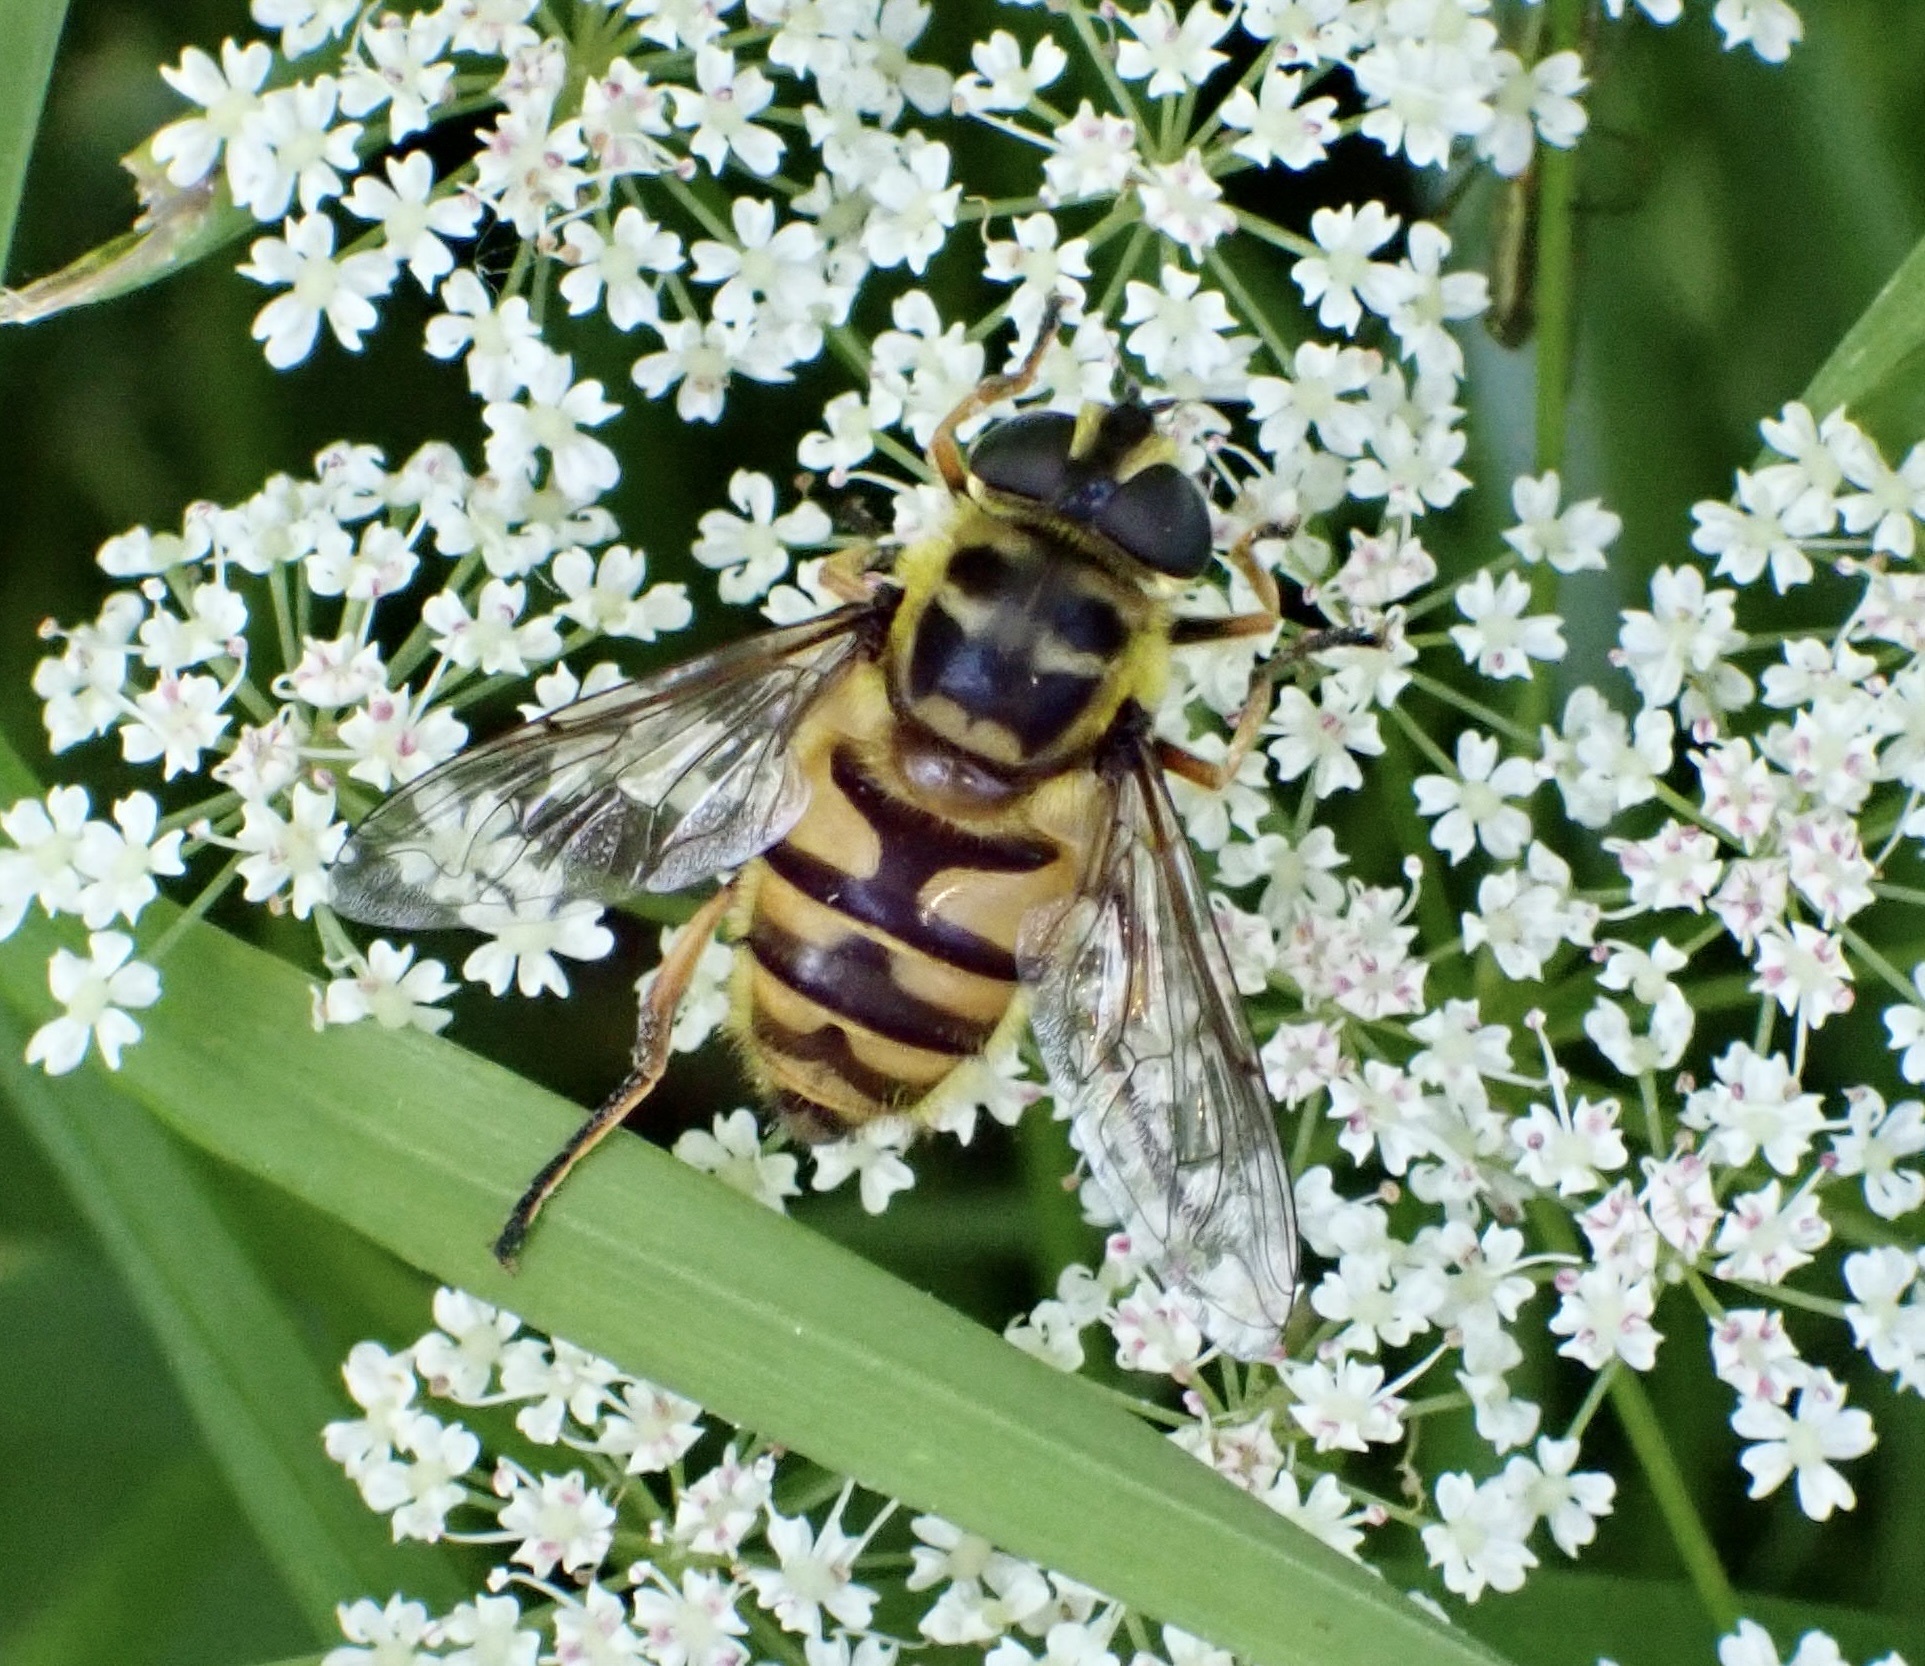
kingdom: Animalia
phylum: Arthropoda
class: Insecta
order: Diptera
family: Syrphidae
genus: Myathropa
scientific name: Myathropa florea
